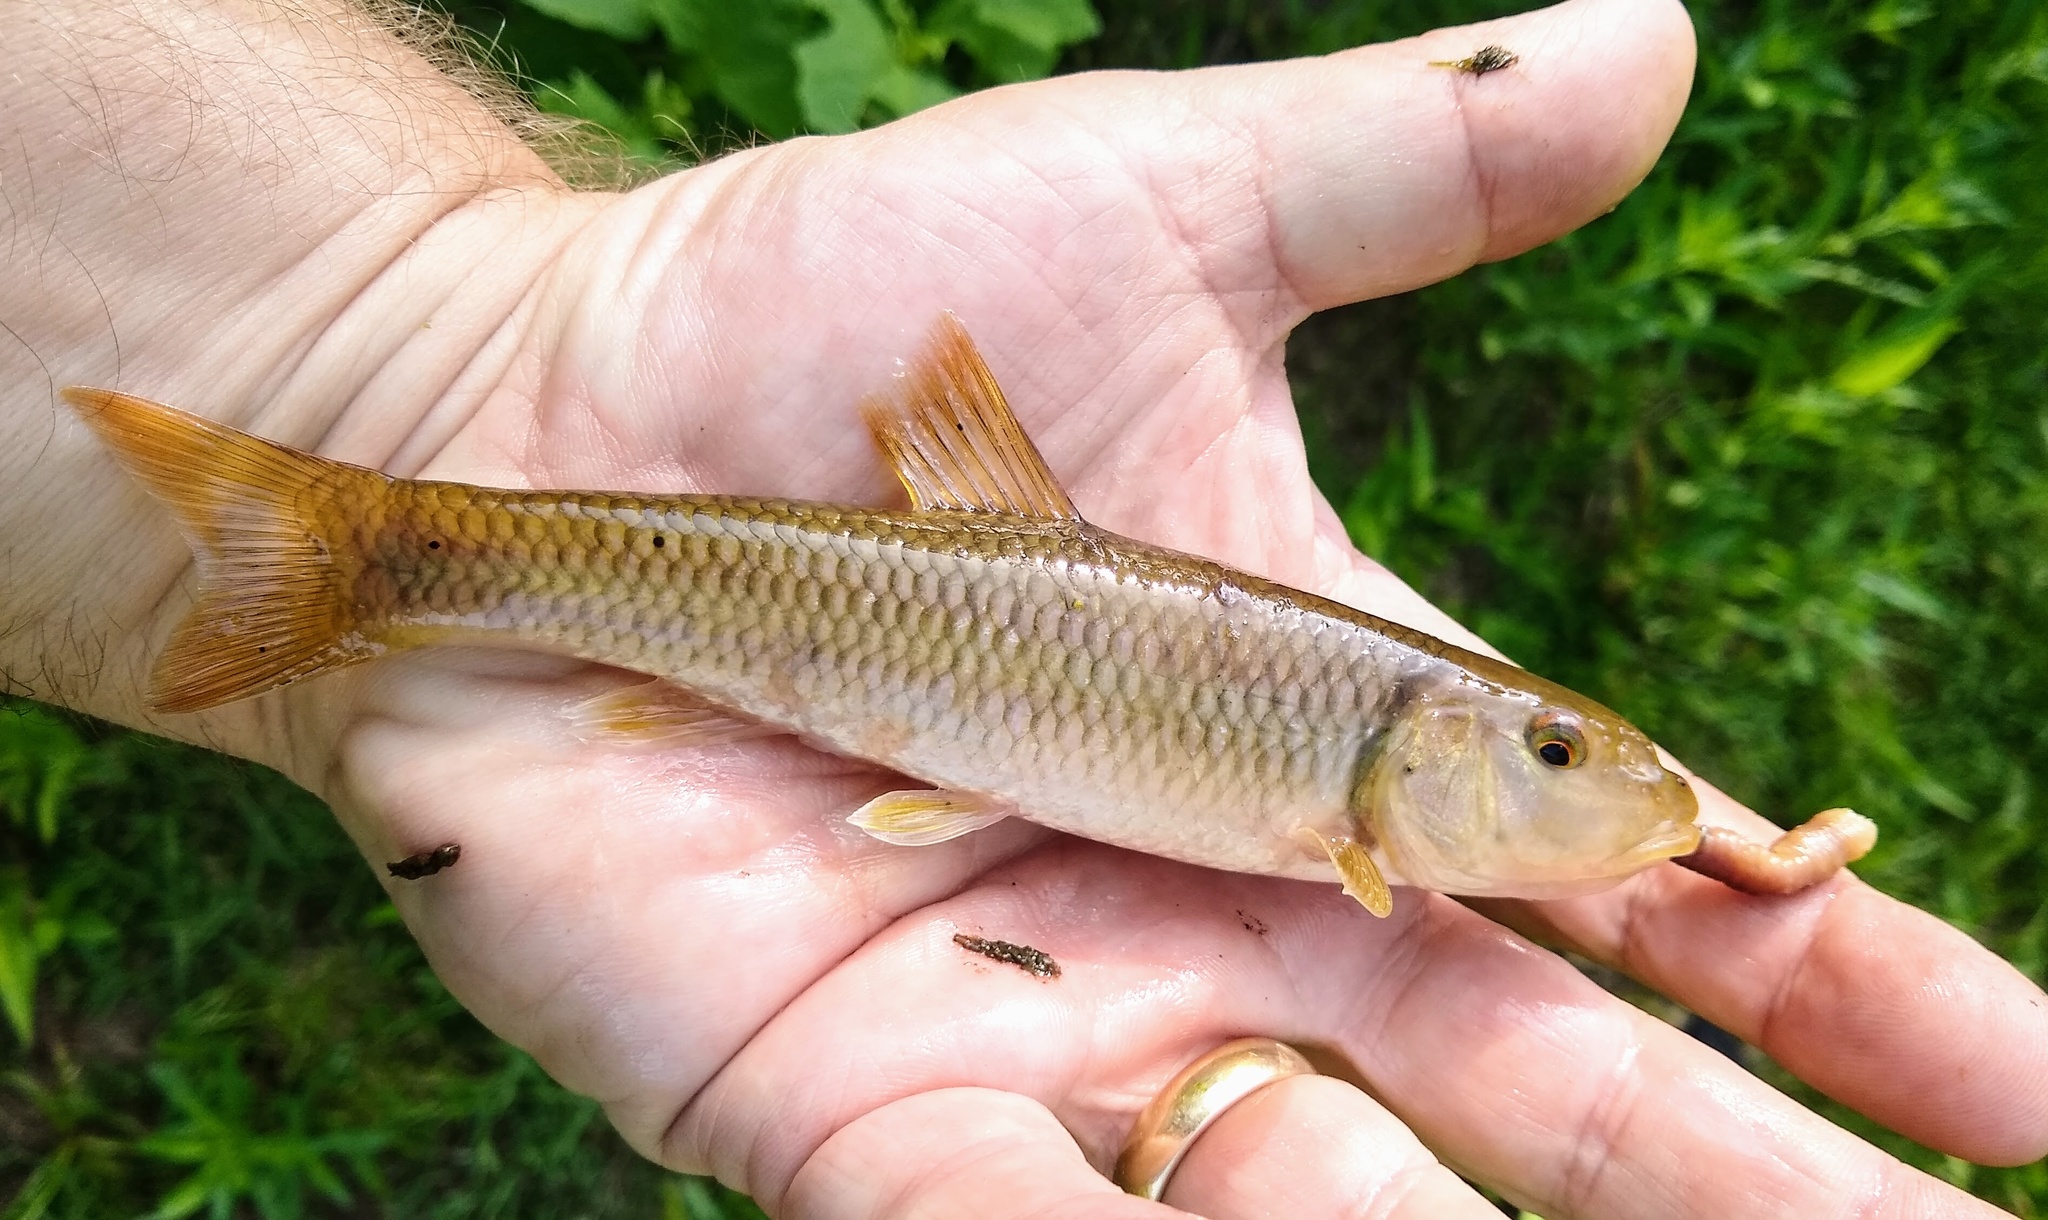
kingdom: Animalia
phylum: Chordata
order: Cypriniformes
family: Cyprinidae
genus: Nocomis
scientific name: Nocomis micropogon
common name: River chub
